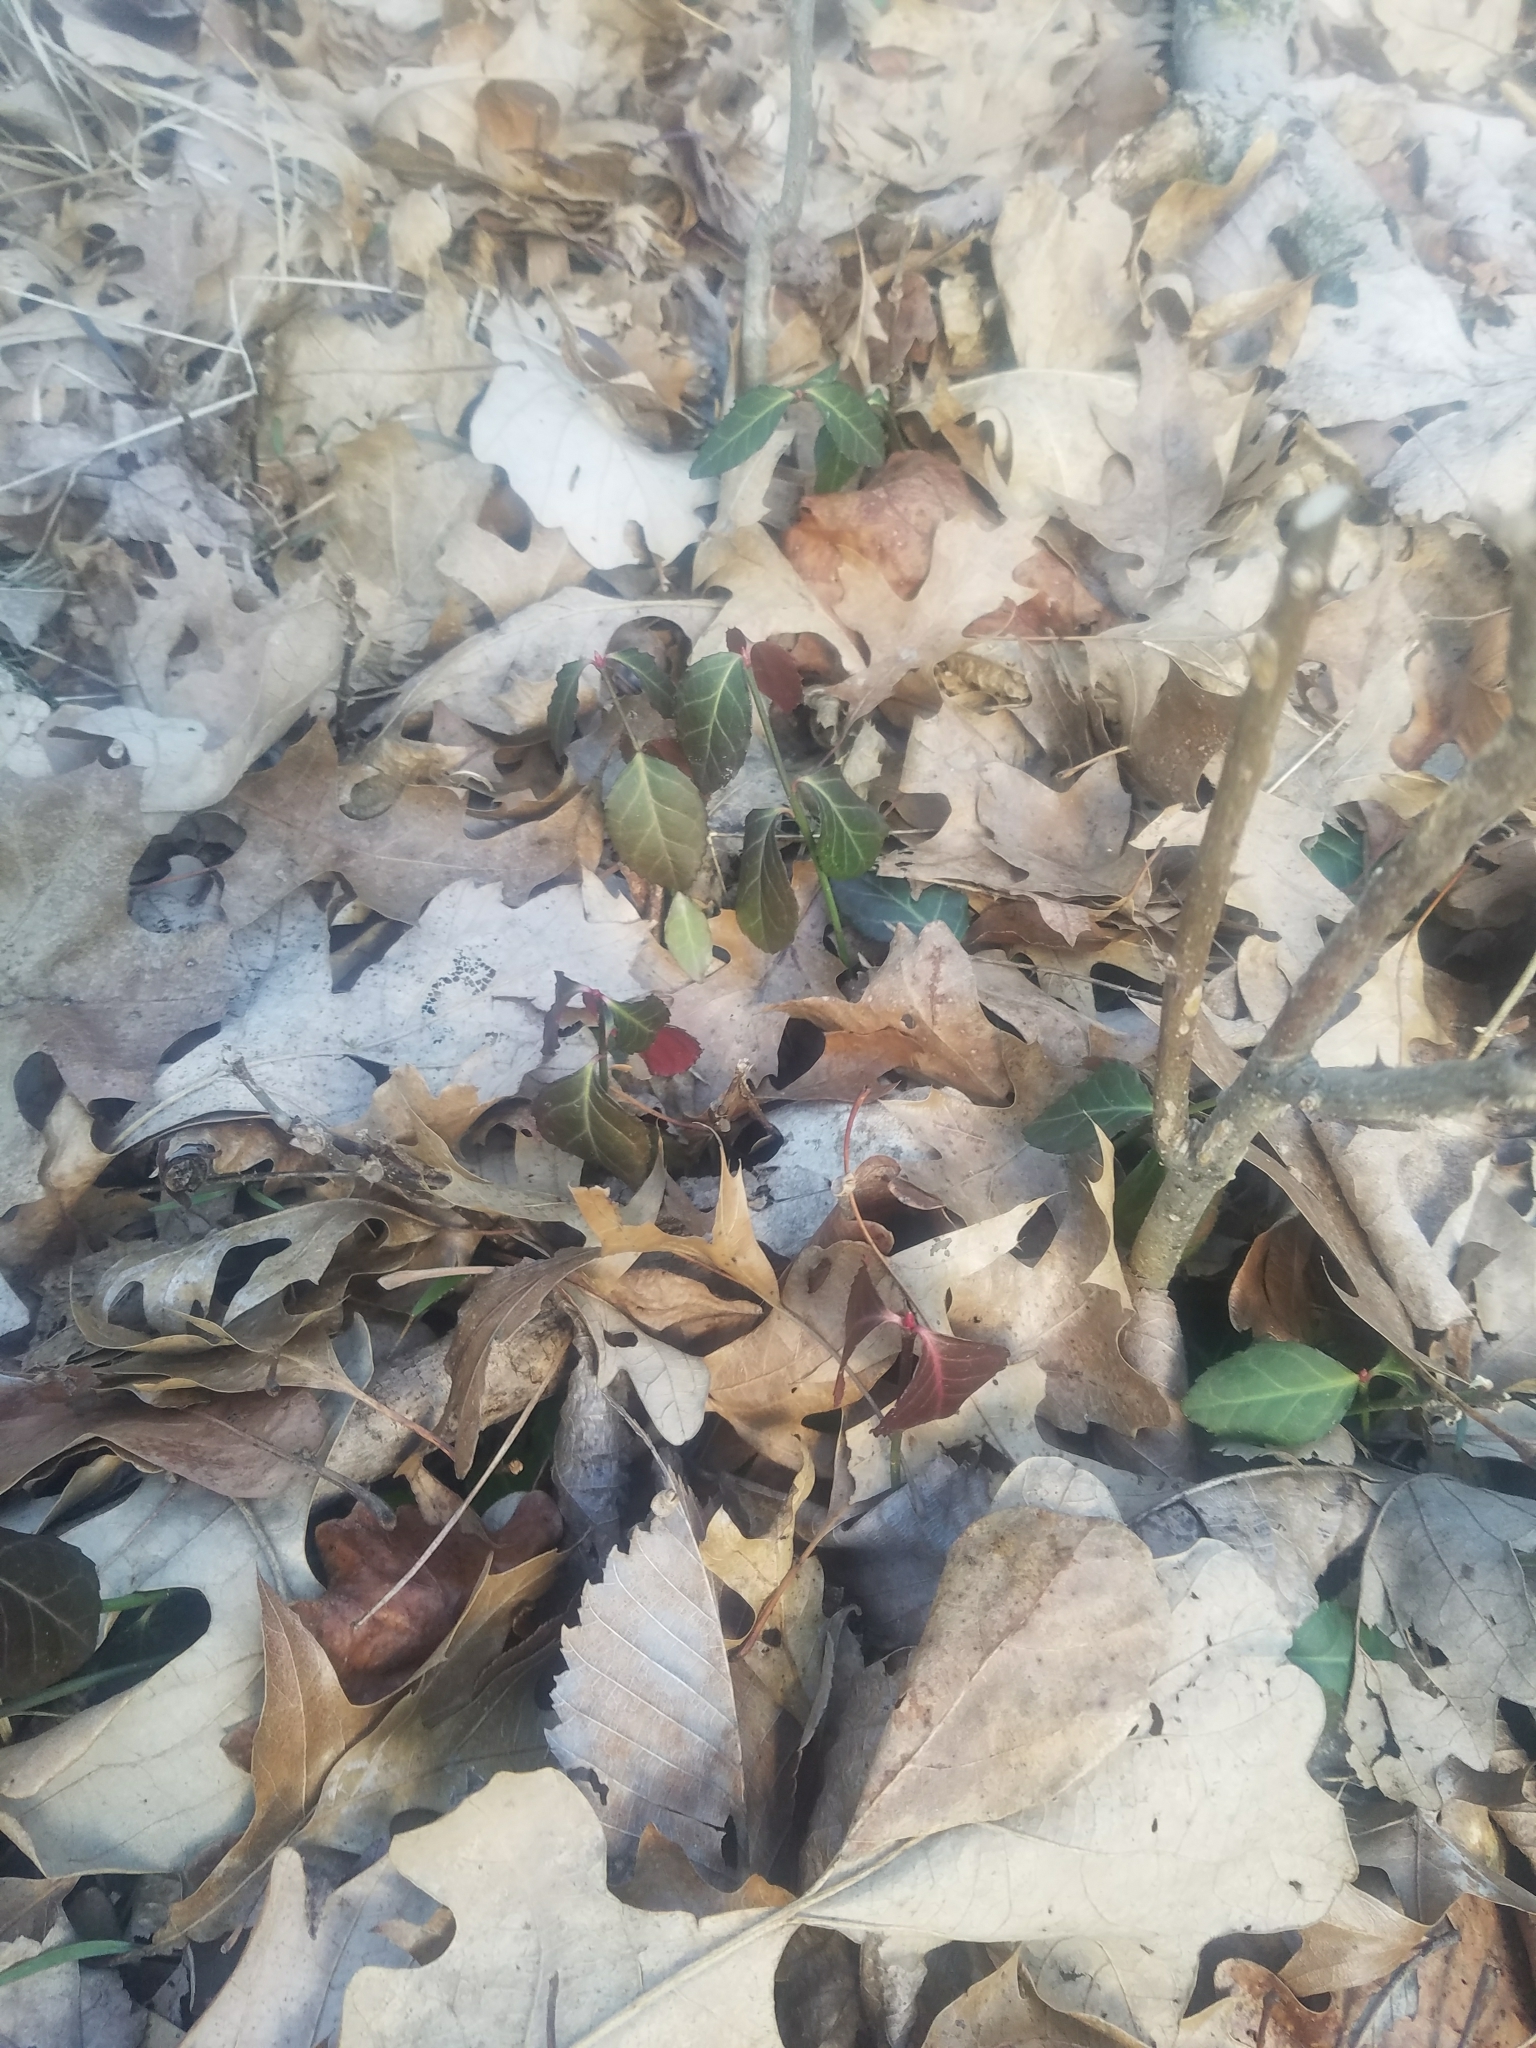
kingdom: Plantae
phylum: Tracheophyta
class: Magnoliopsida
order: Celastrales
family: Celastraceae
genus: Euonymus
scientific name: Euonymus fortunei
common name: Climbing euonymus
